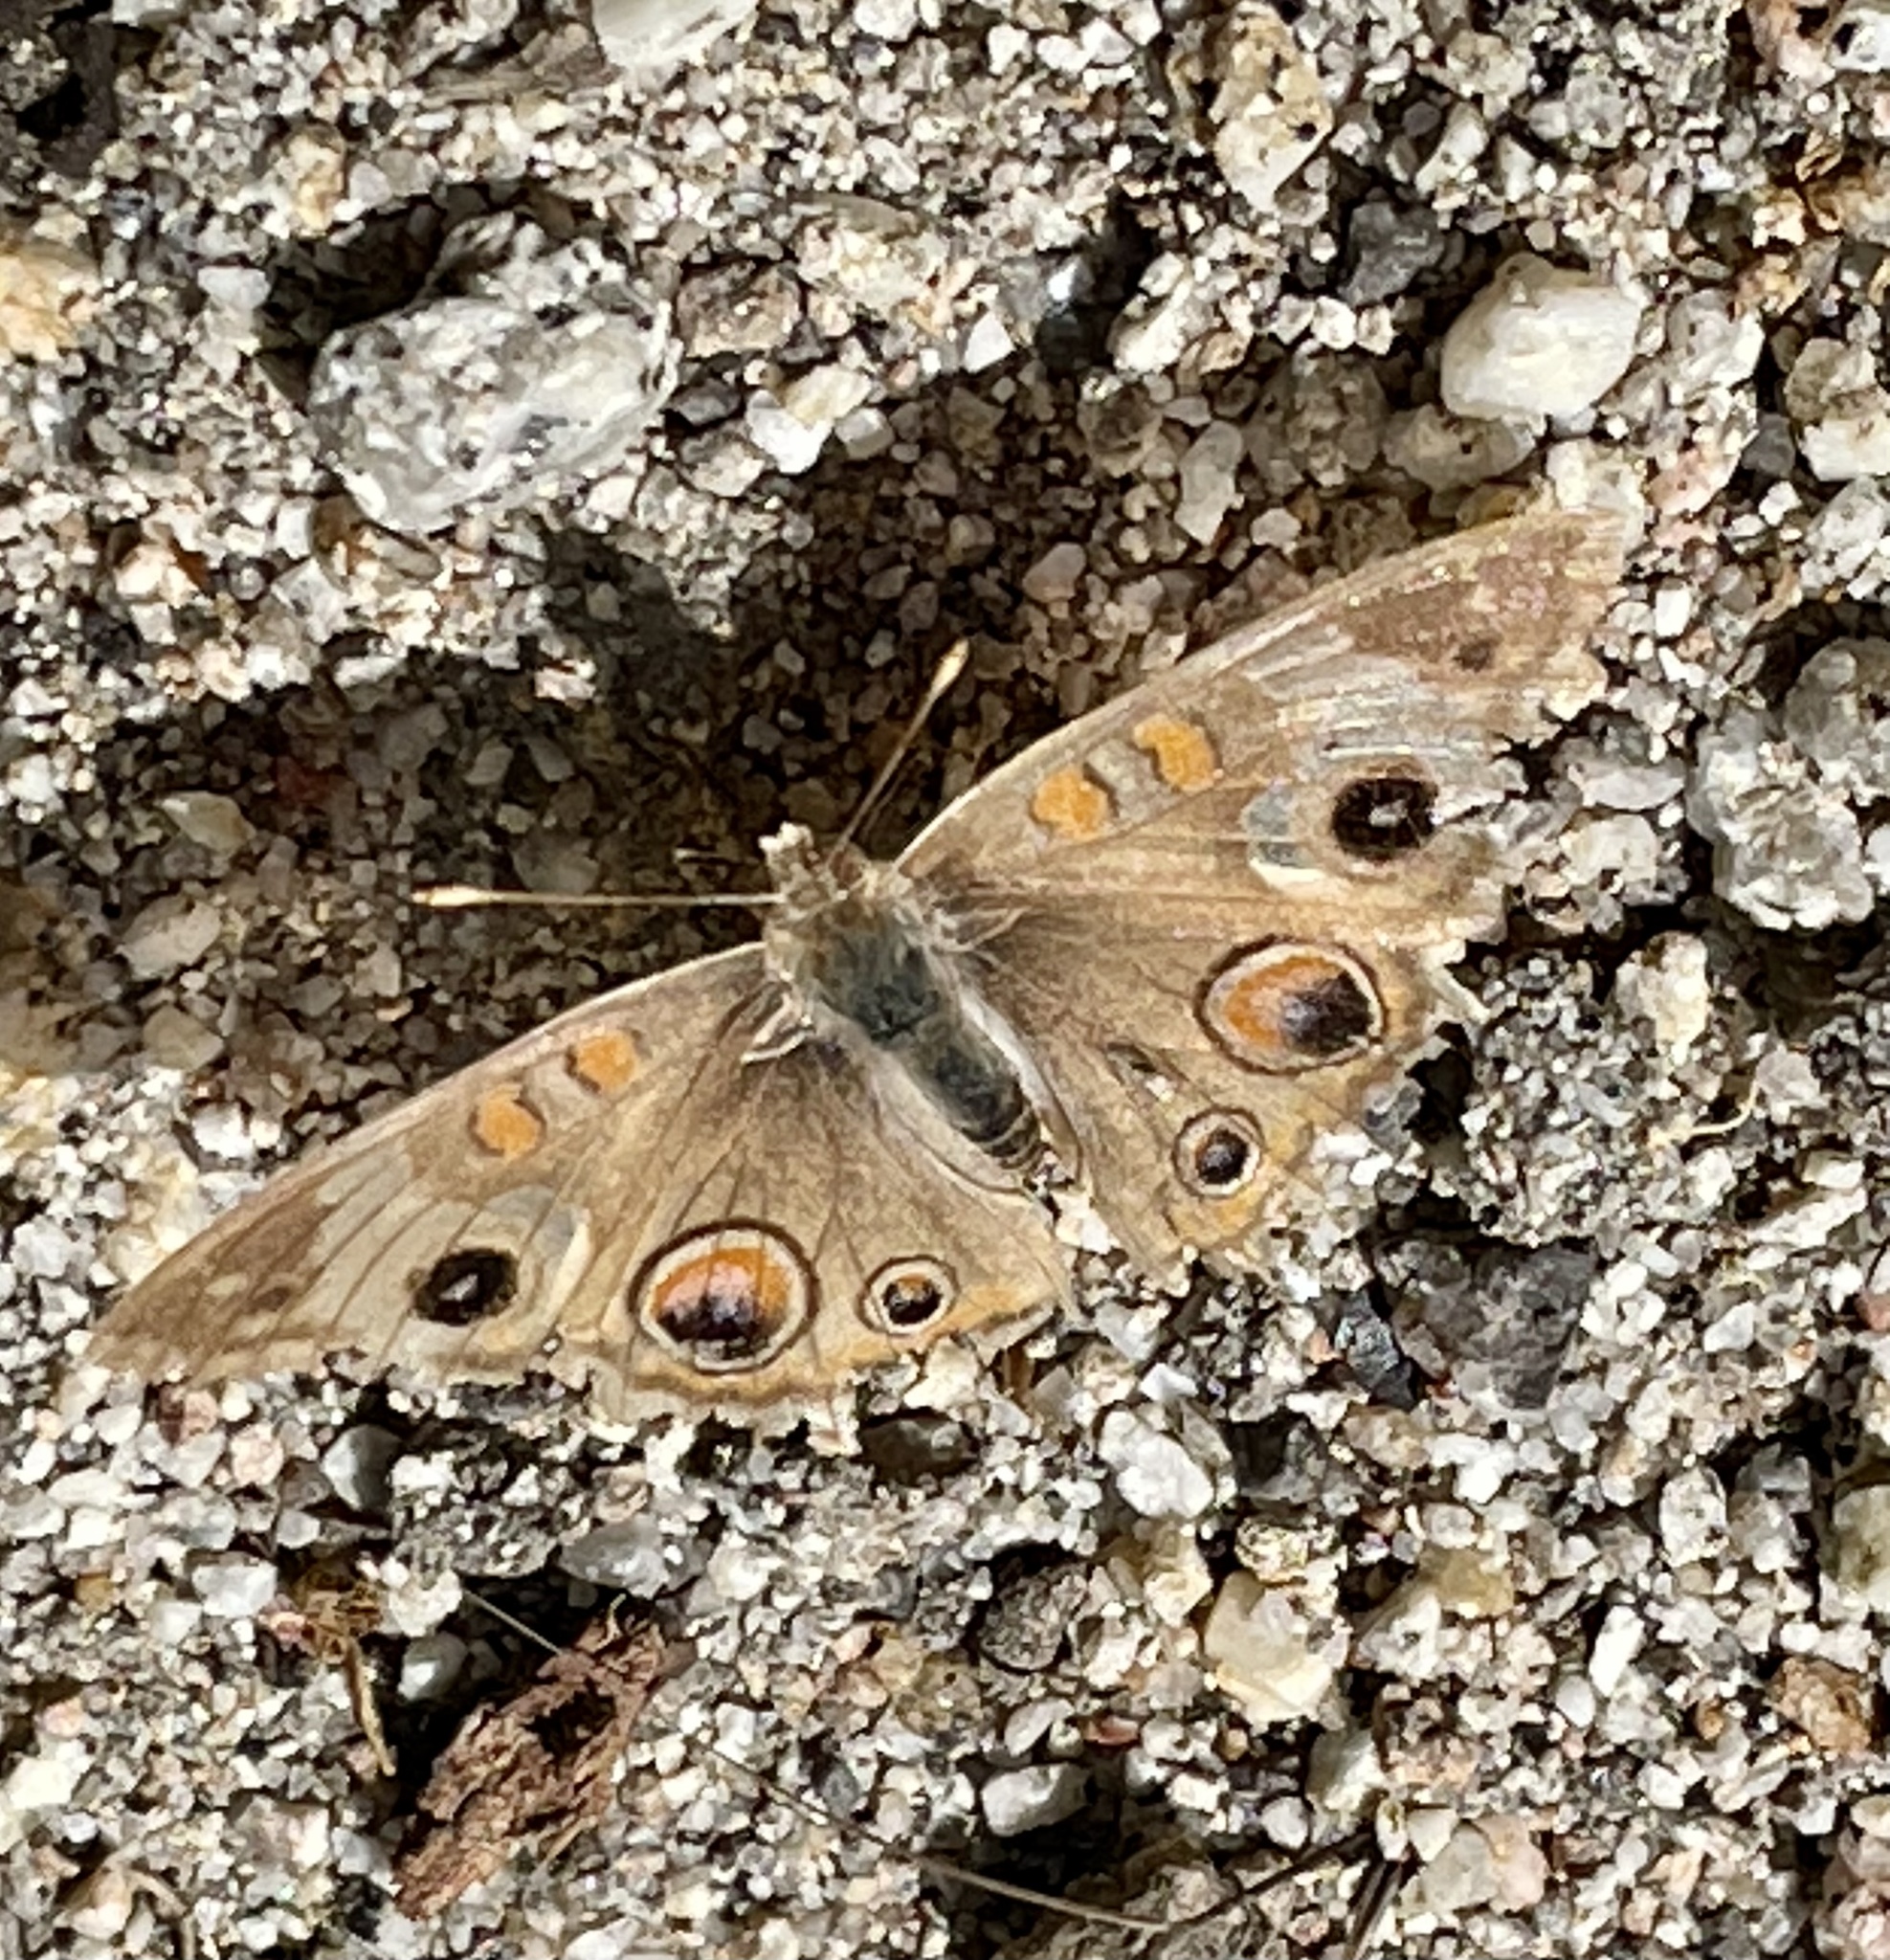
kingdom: Animalia
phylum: Arthropoda
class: Insecta
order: Lepidoptera
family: Nymphalidae
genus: Junonia
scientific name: Junonia grisea
